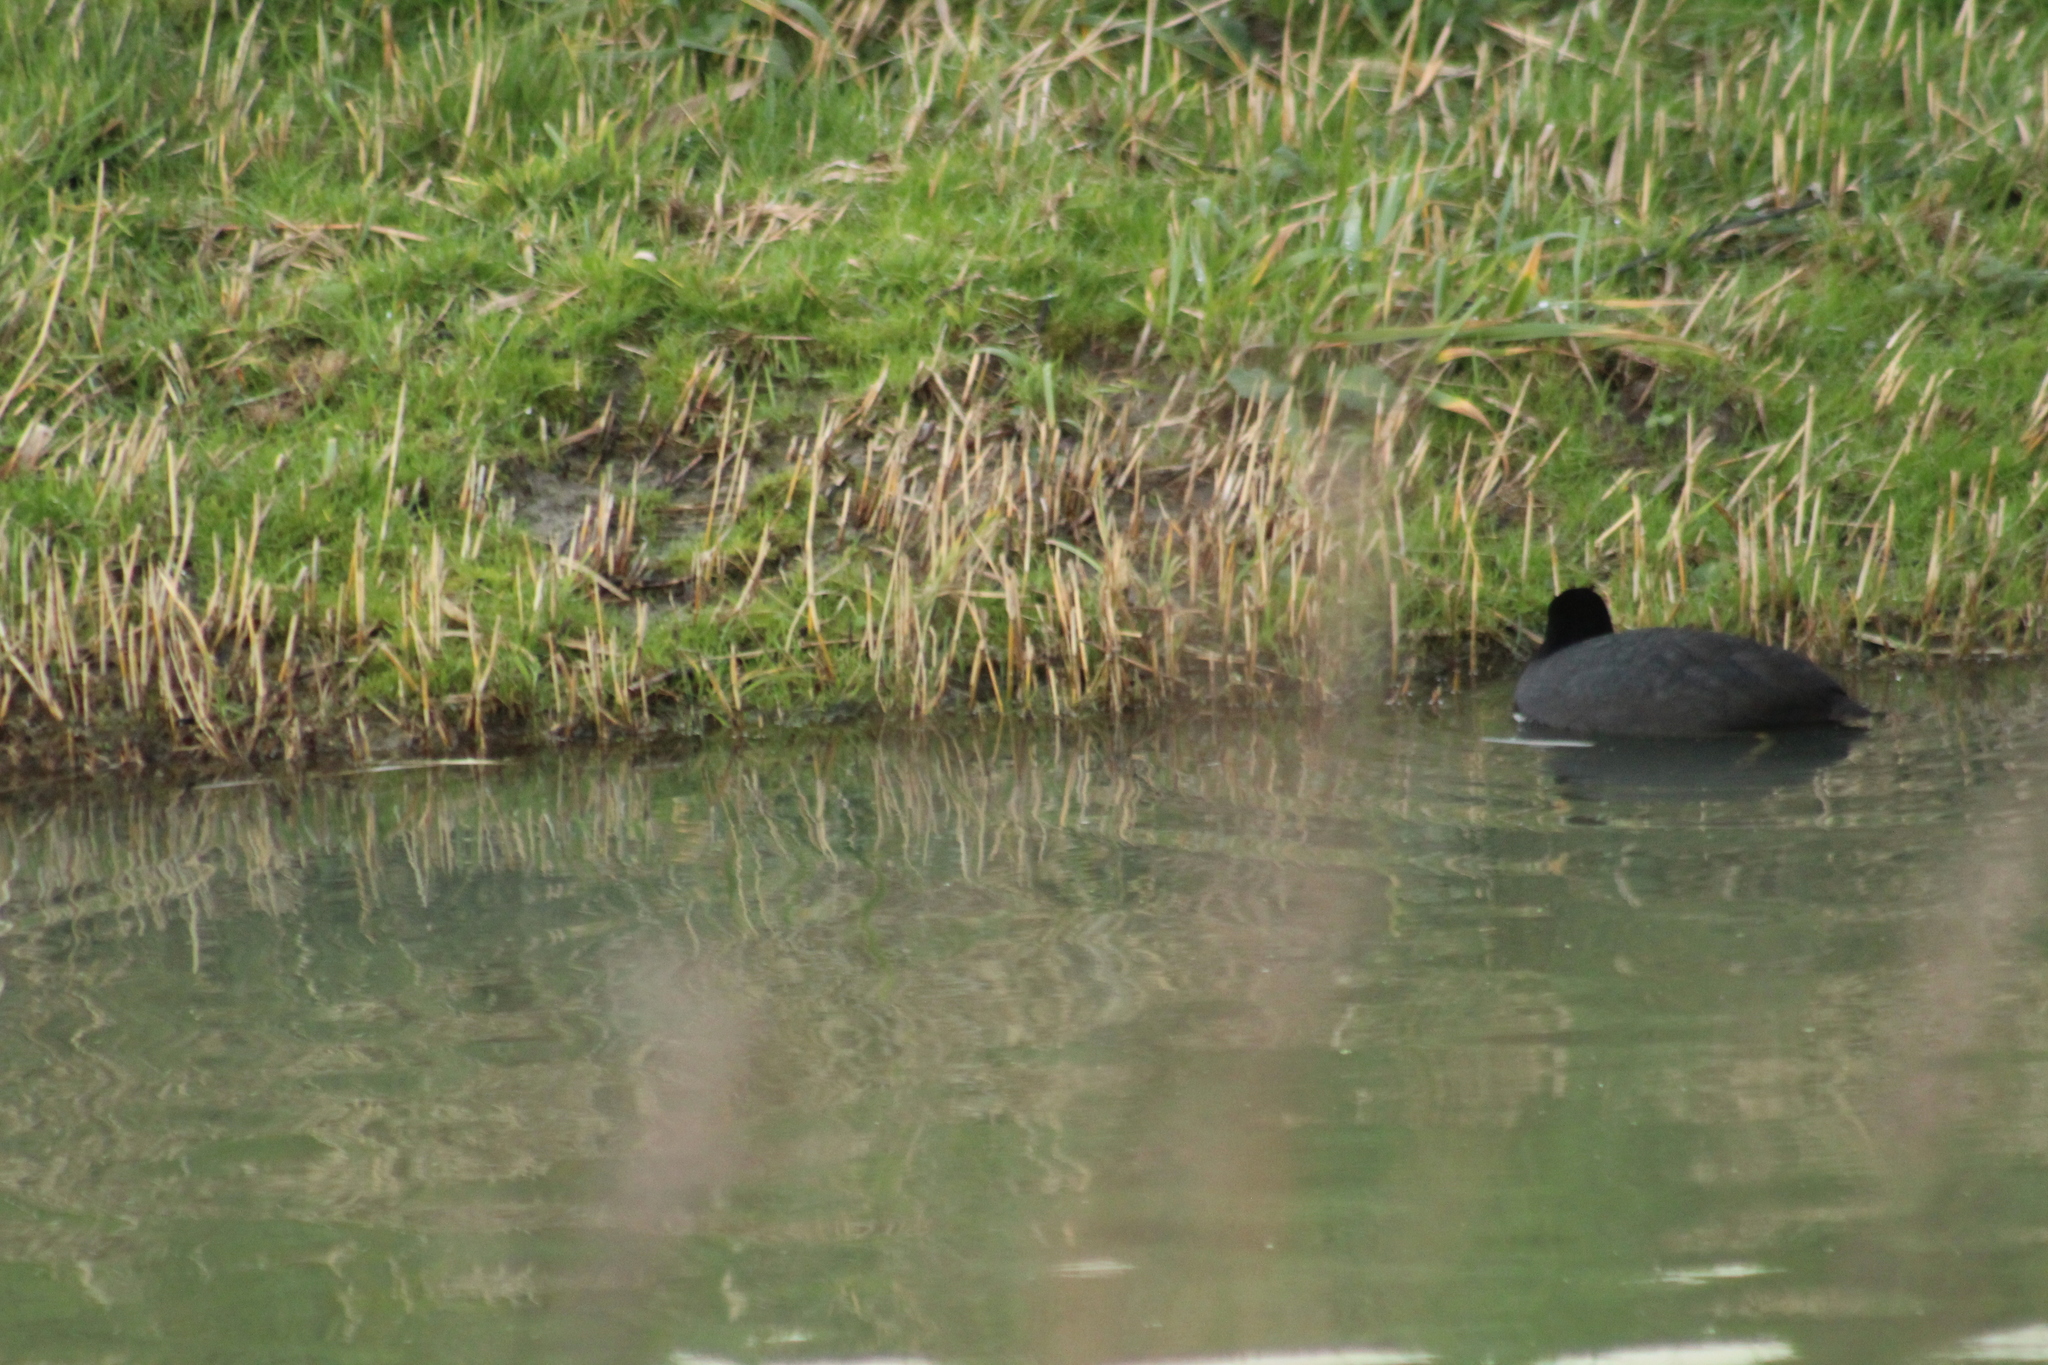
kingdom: Animalia
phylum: Chordata
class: Aves
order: Gruiformes
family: Rallidae
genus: Fulica
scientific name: Fulica atra
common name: Eurasian coot
